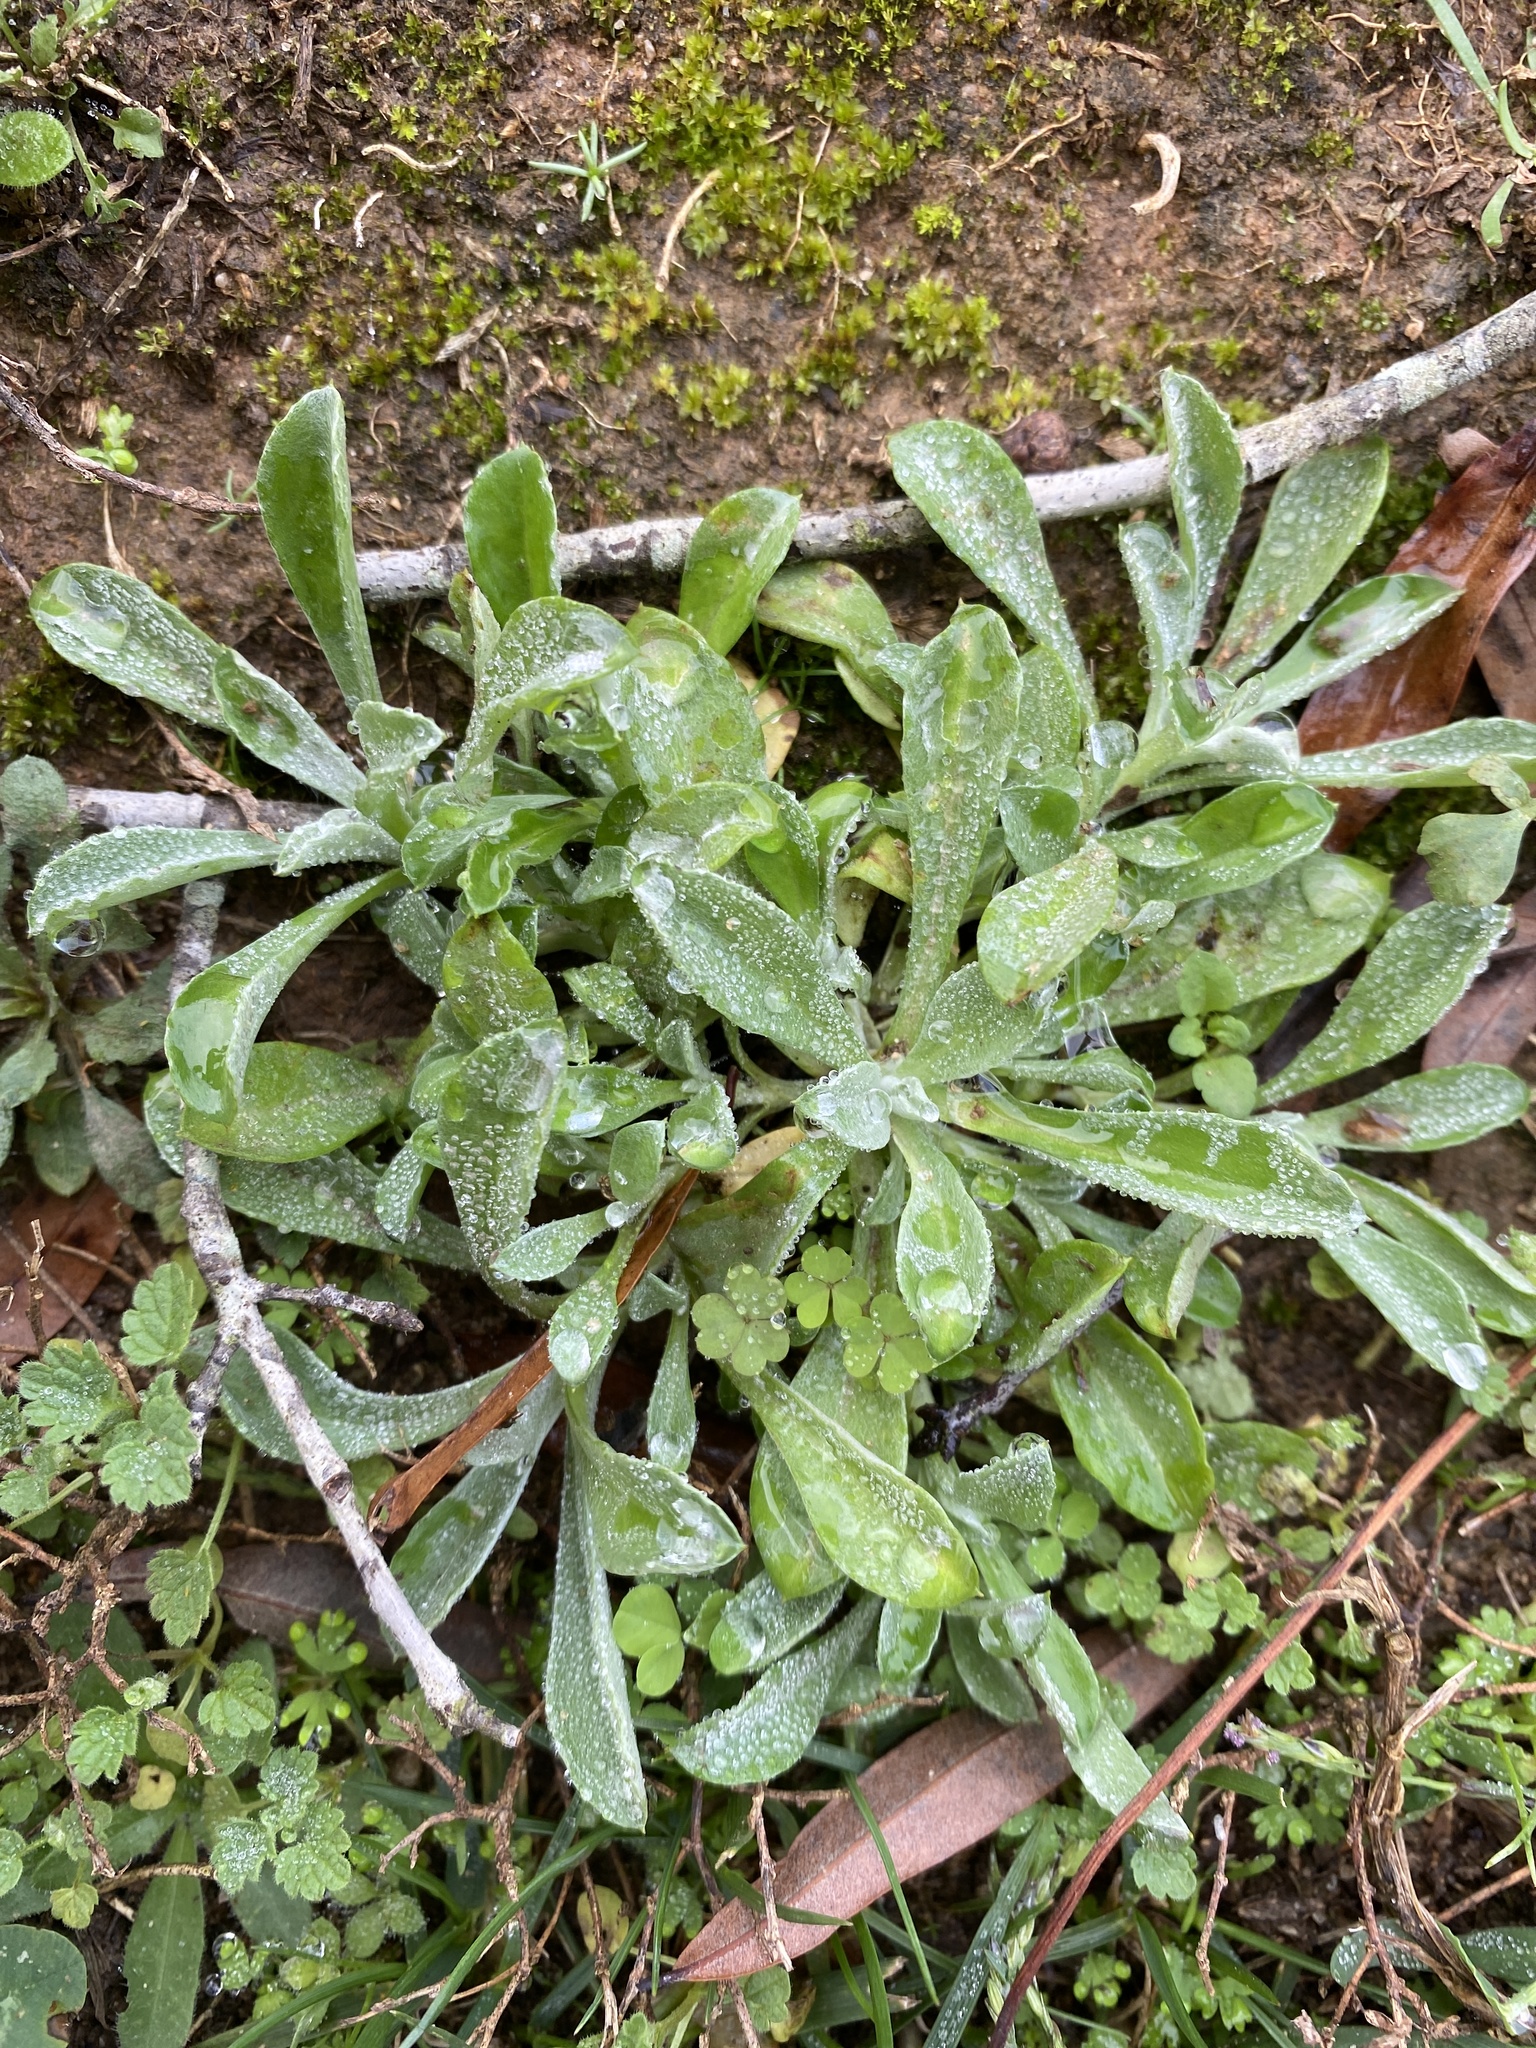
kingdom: Plantae
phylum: Tracheophyta
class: Magnoliopsida
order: Asterales
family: Asteraceae
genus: Helichrysum
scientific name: Helichrysum luteoalbum
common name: Daisy
